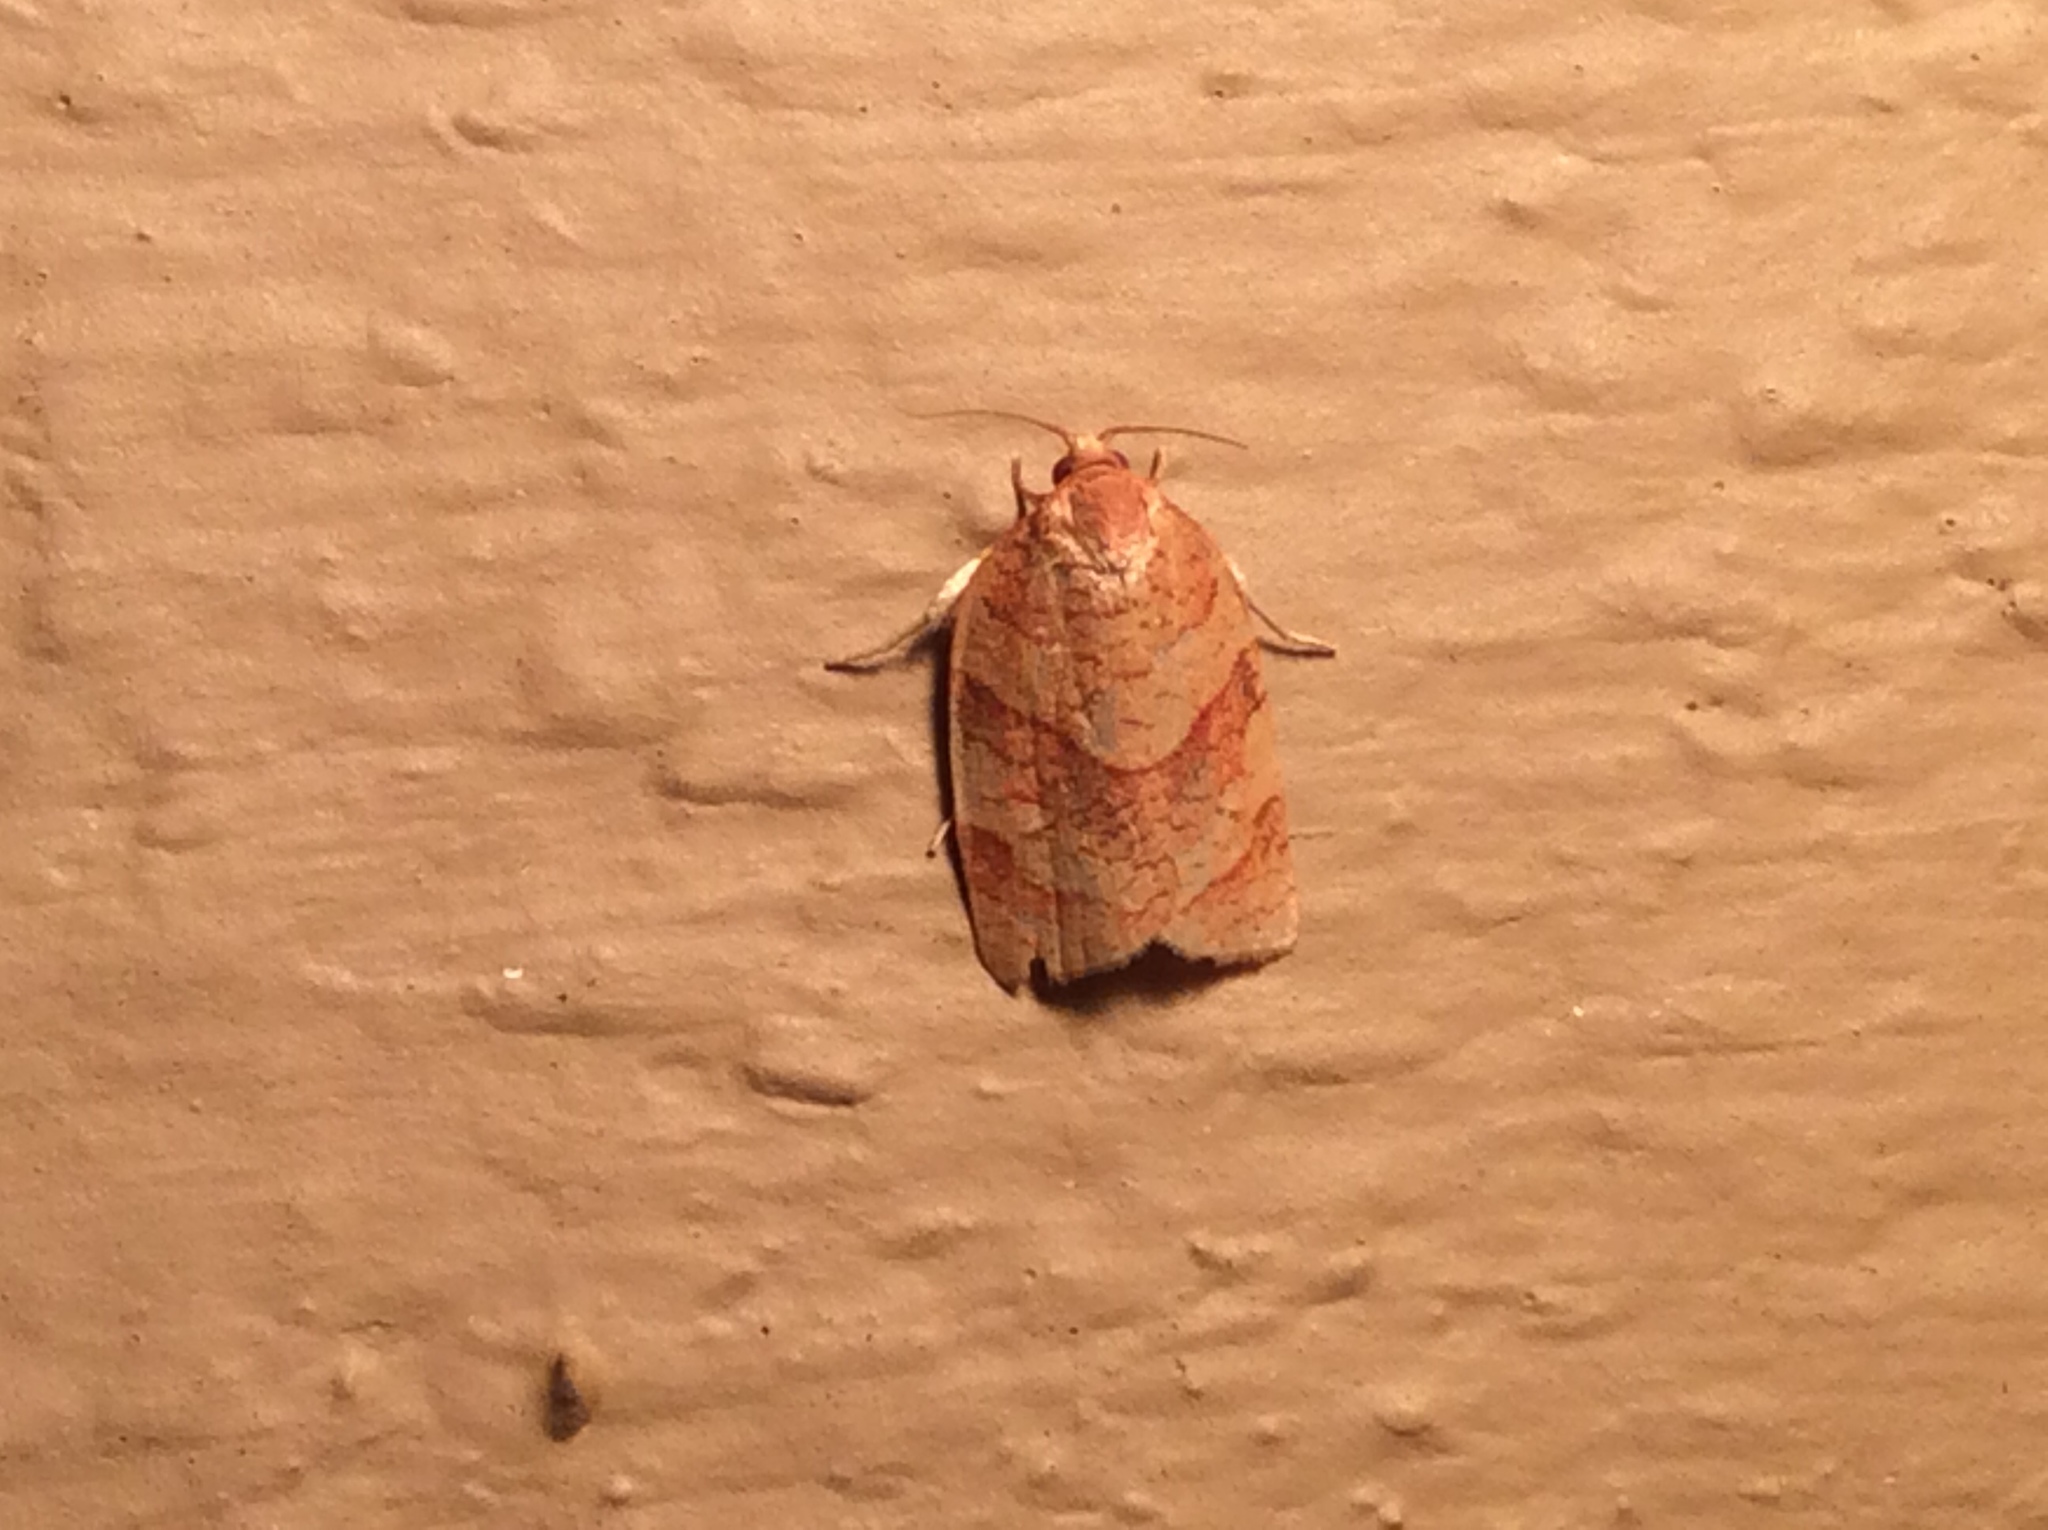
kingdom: Animalia
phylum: Arthropoda
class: Insecta
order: Lepidoptera
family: Tortricidae
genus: Choristoneura
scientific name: Choristoneura parallela
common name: Parallel-banded leafroller moth
